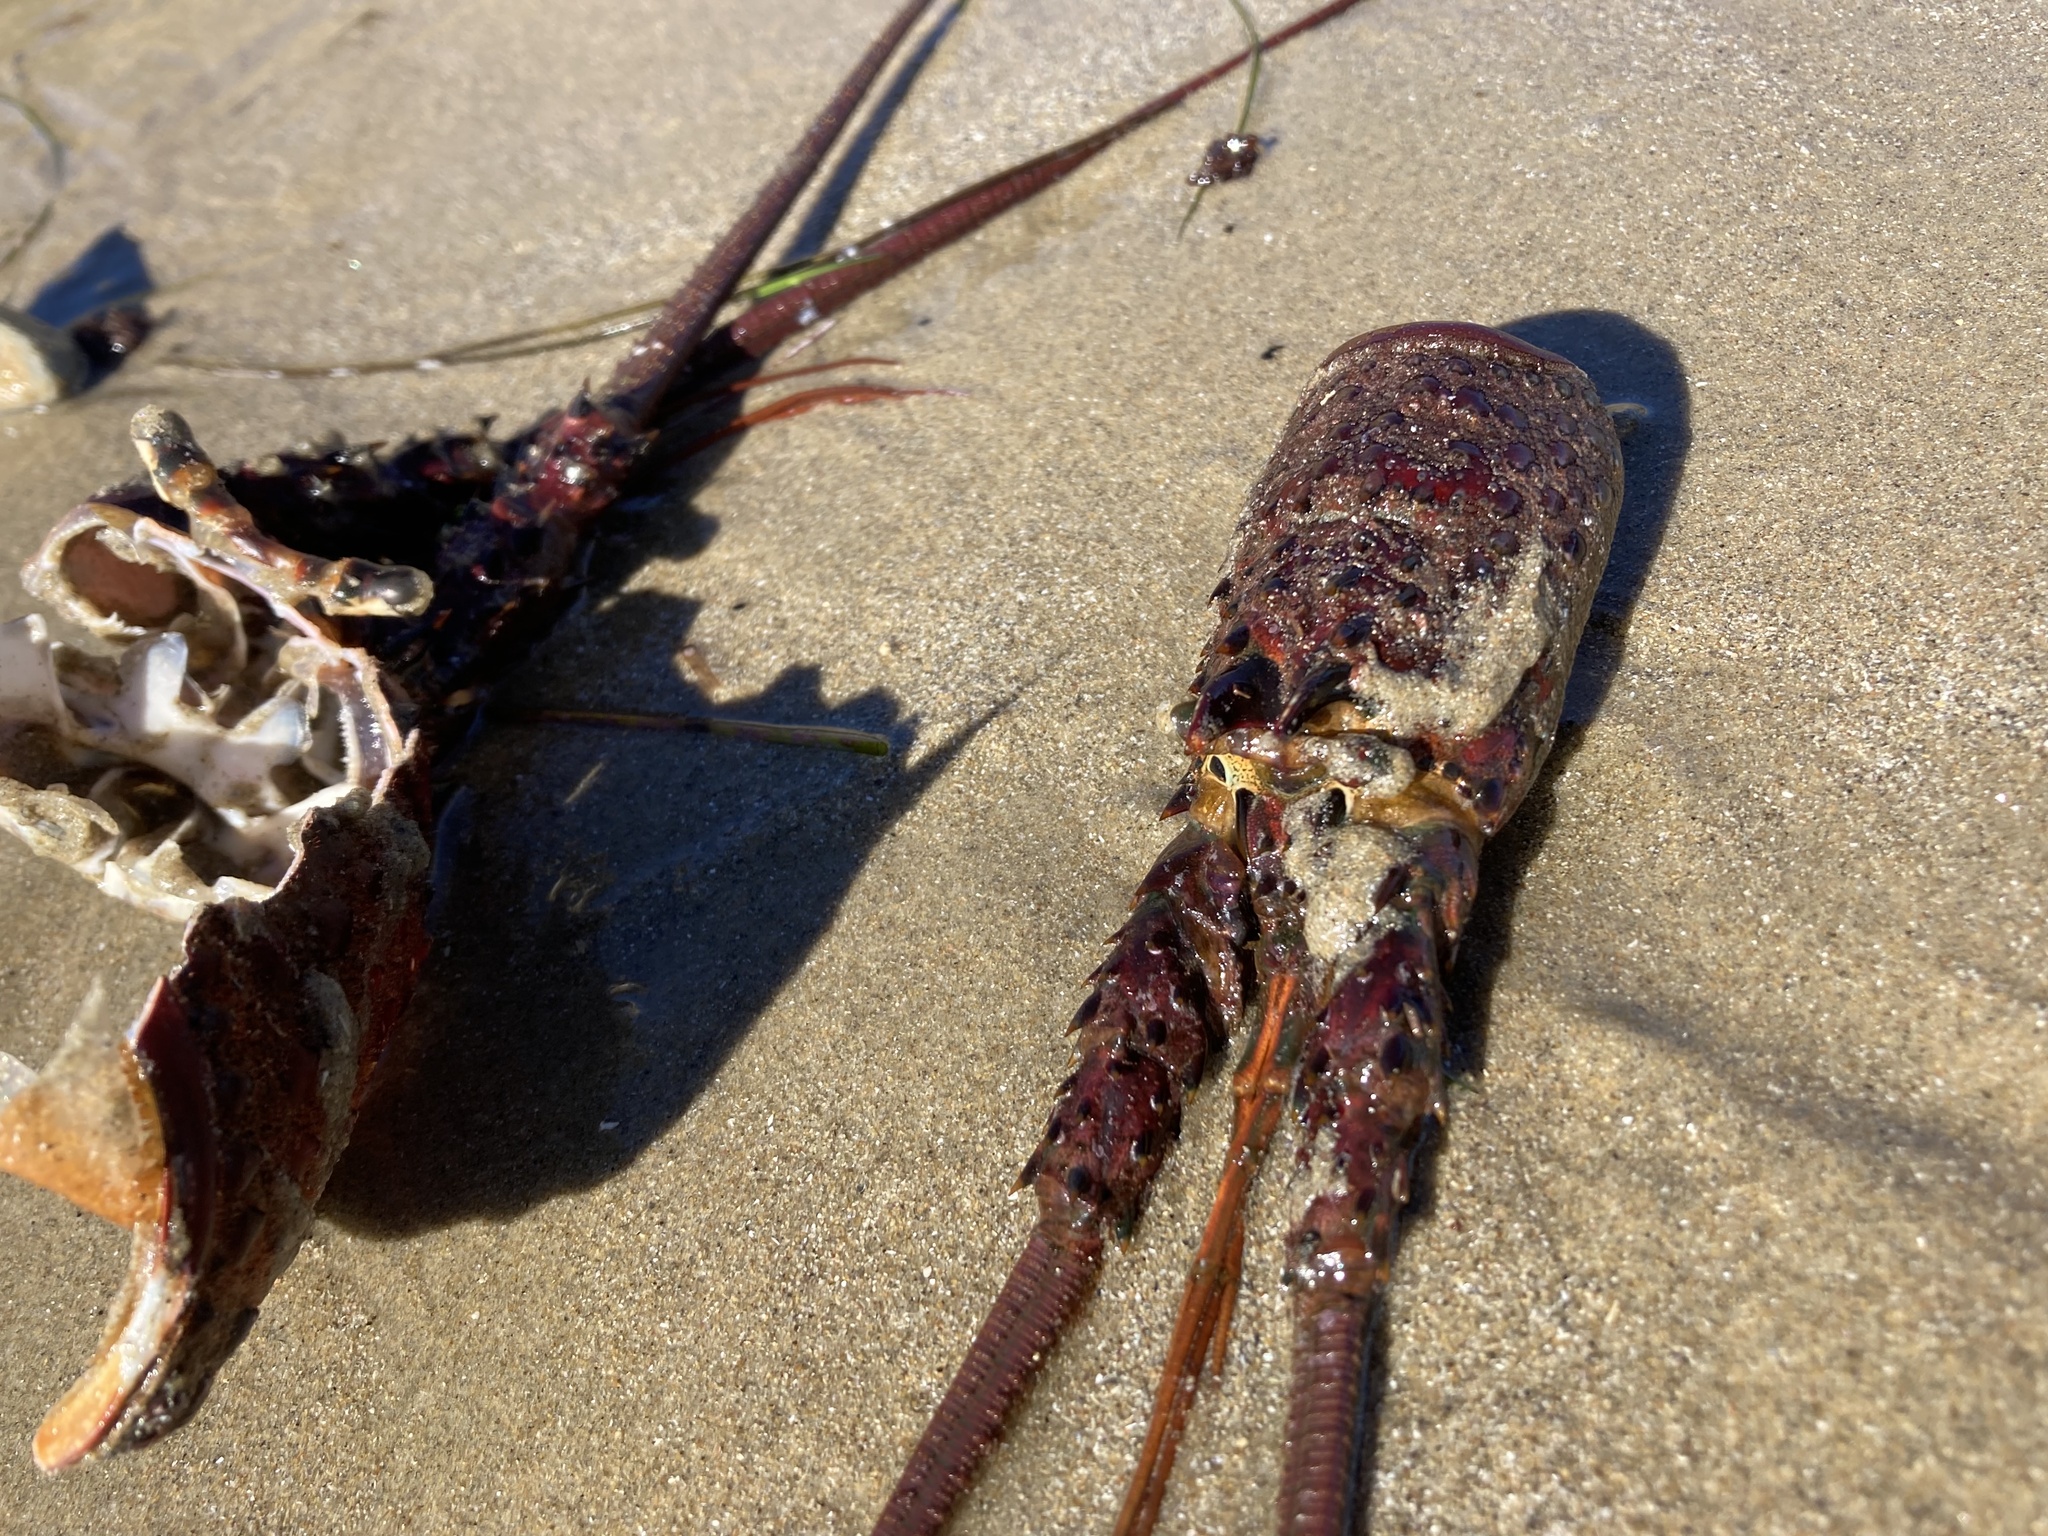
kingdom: Animalia
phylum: Arthropoda
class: Malacostraca
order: Decapoda
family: Palinuridae
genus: Panulirus
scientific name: Panulirus interruptus
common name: California spiny lobster
